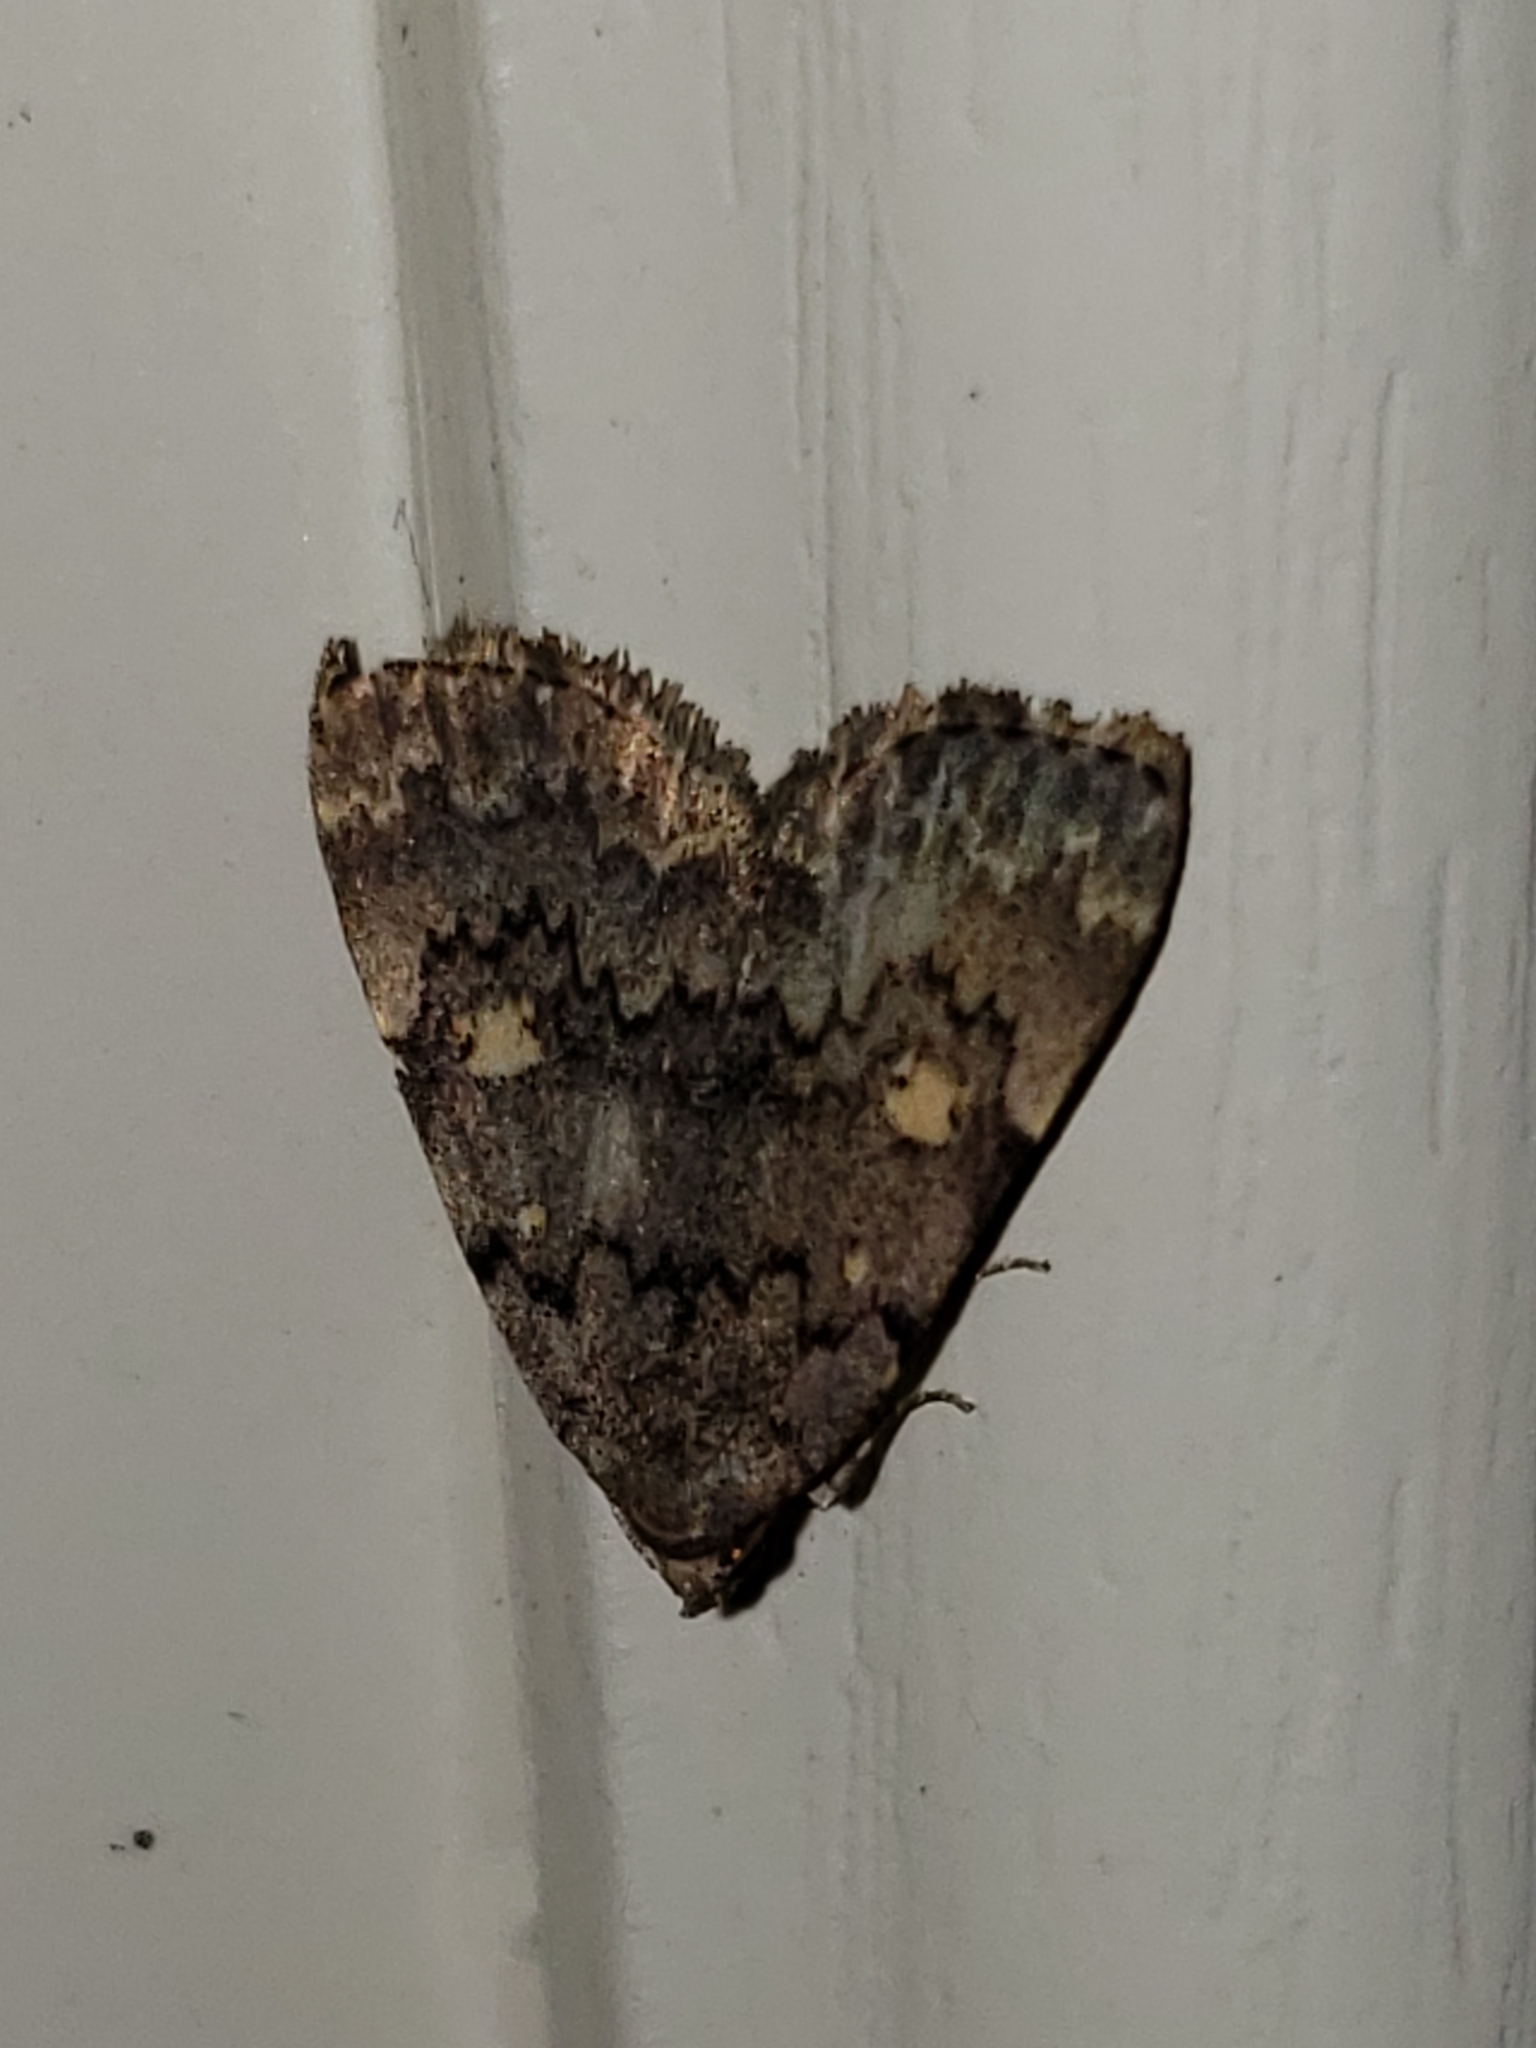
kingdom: Animalia
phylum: Arthropoda
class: Insecta
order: Lepidoptera
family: Erebidae
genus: Idia
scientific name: Idia aemula
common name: Common idia moth
